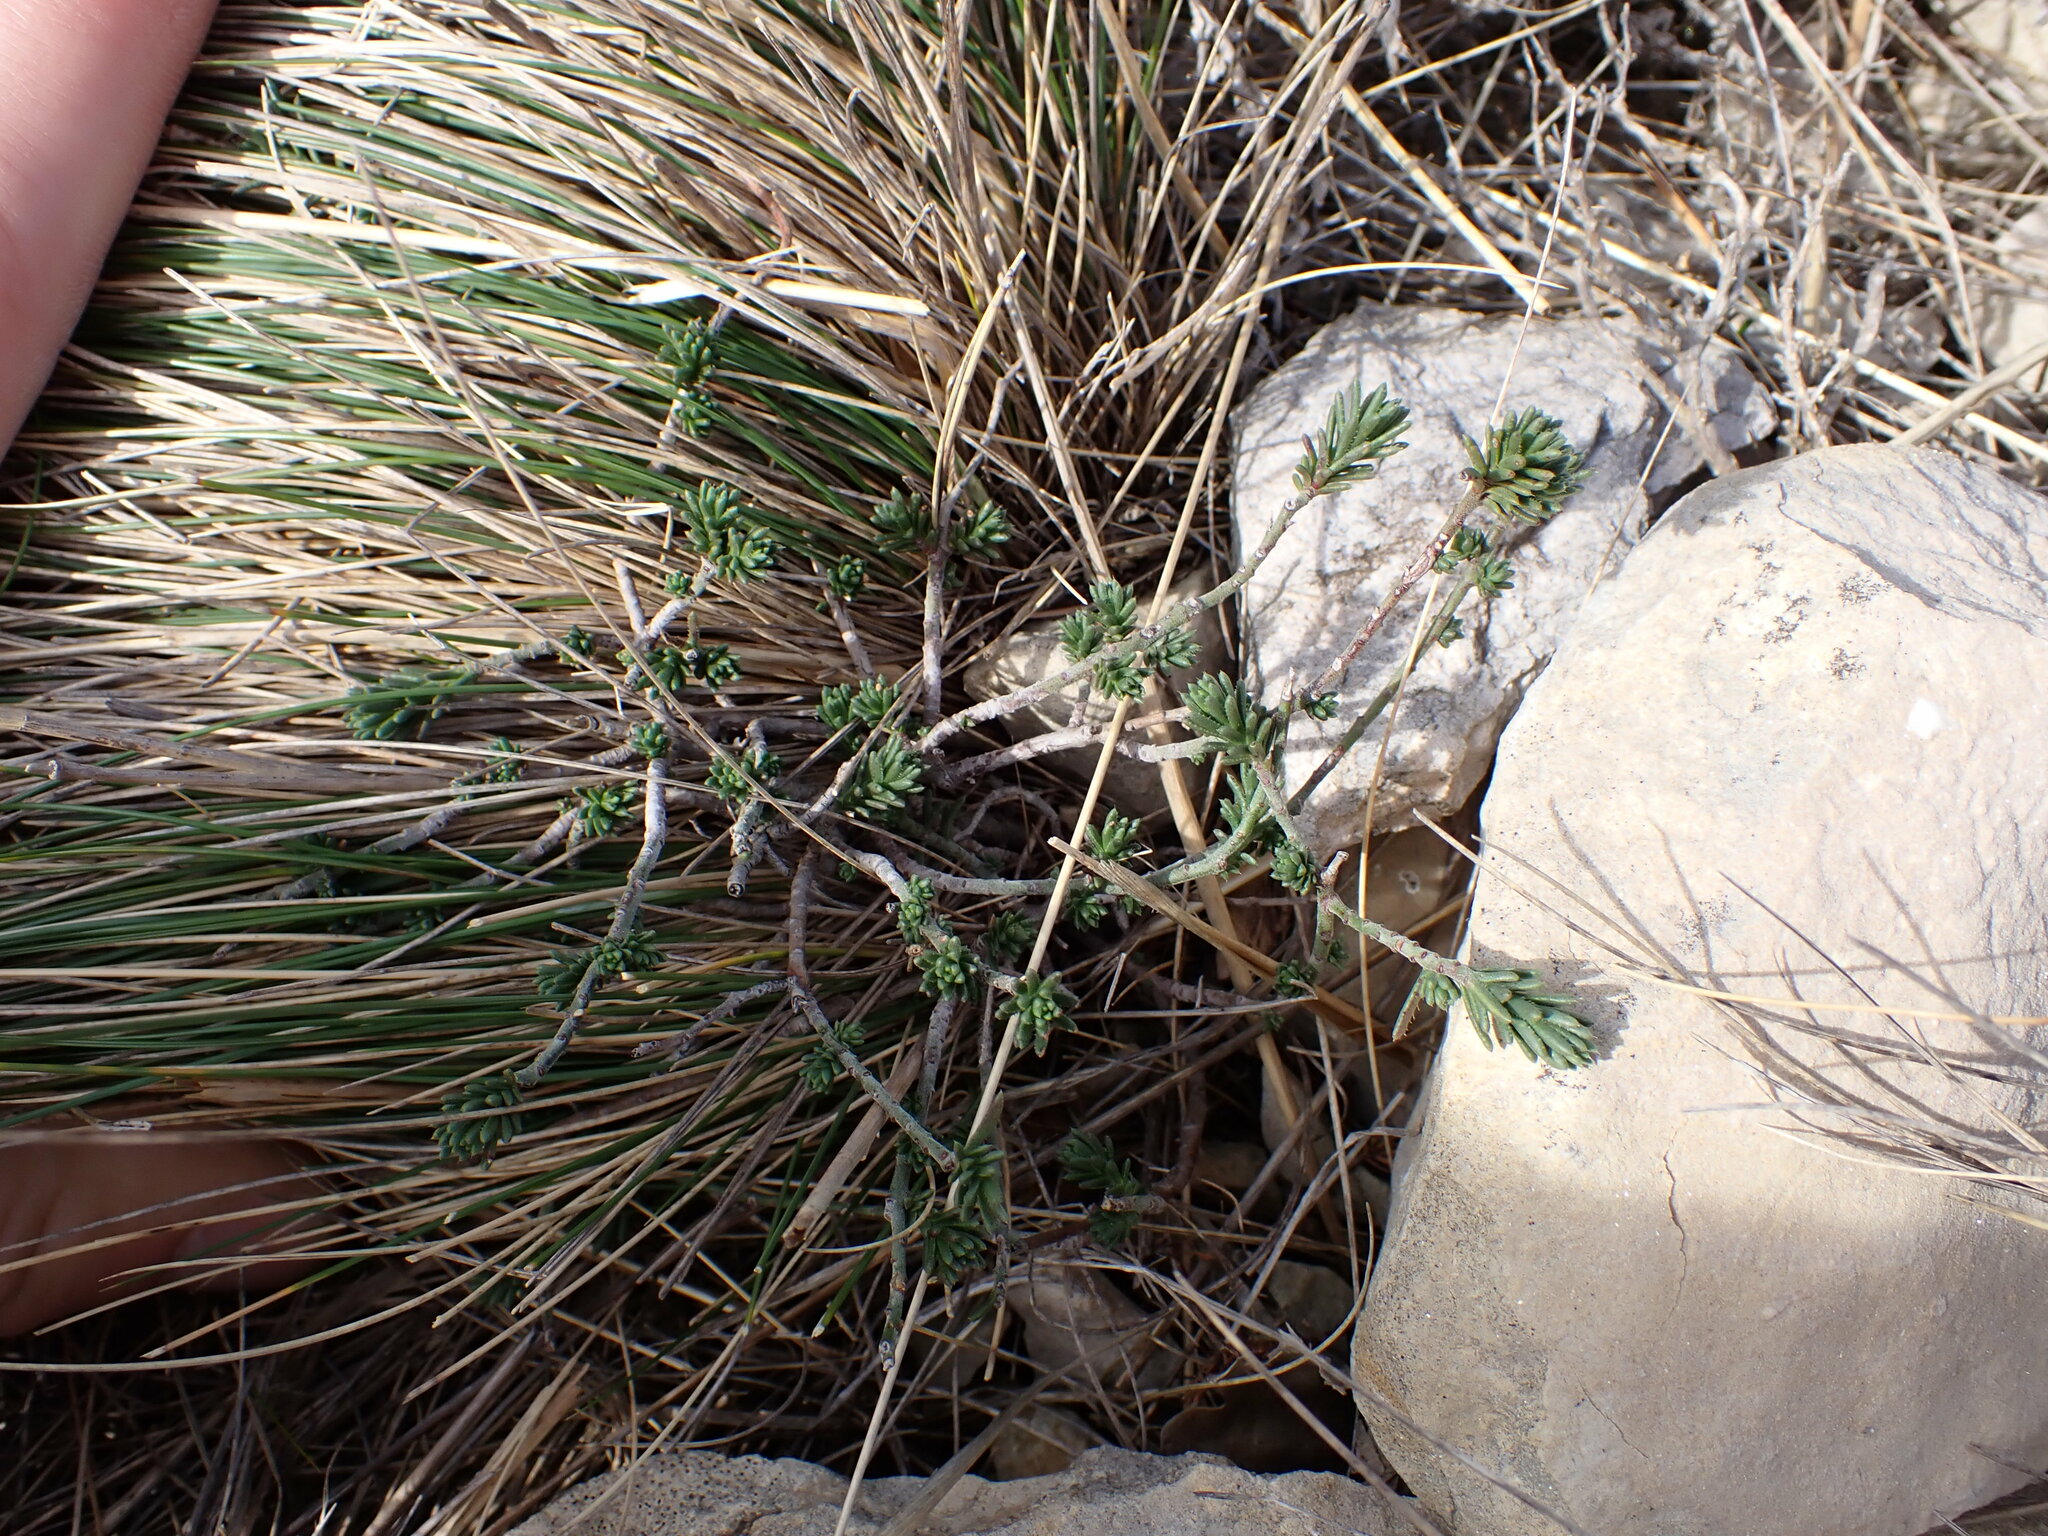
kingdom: Plantae
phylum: Tracheophyta
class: Magnoliopsida
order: Brassicales
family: Brassicaceae
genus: Iberis
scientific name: Iberis saxatilis
